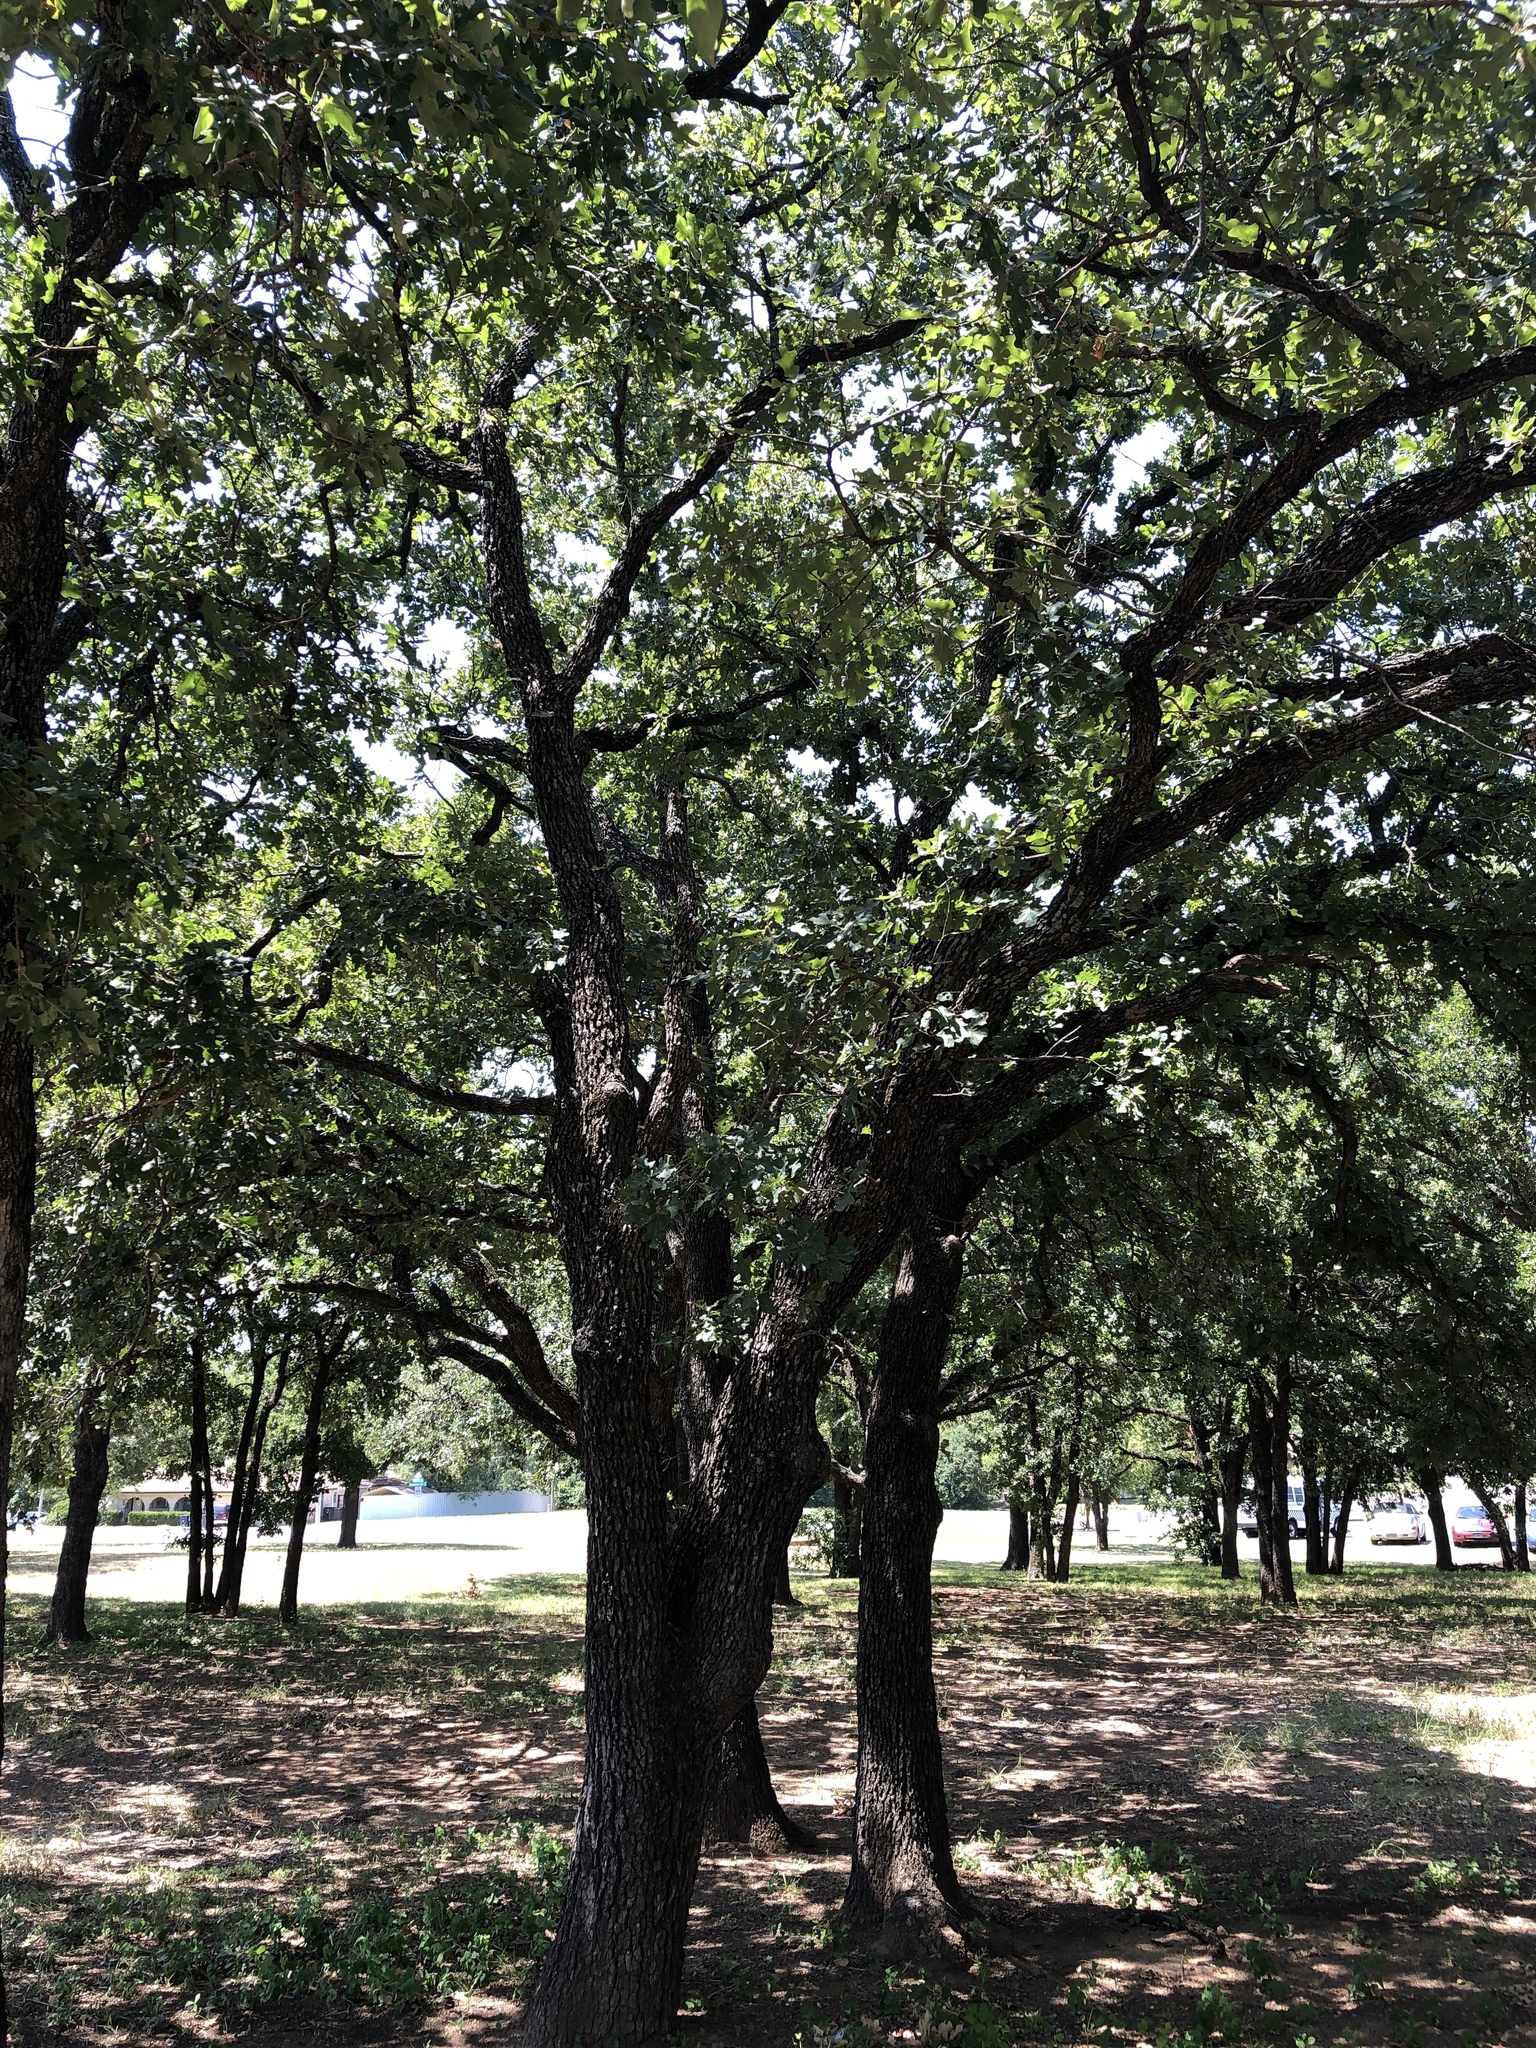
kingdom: Plantae
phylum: Tracheophyta
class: Magnoliopsida
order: Fagales
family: Fagaceae
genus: Quercus
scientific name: Quercus stellata
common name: Post oak
